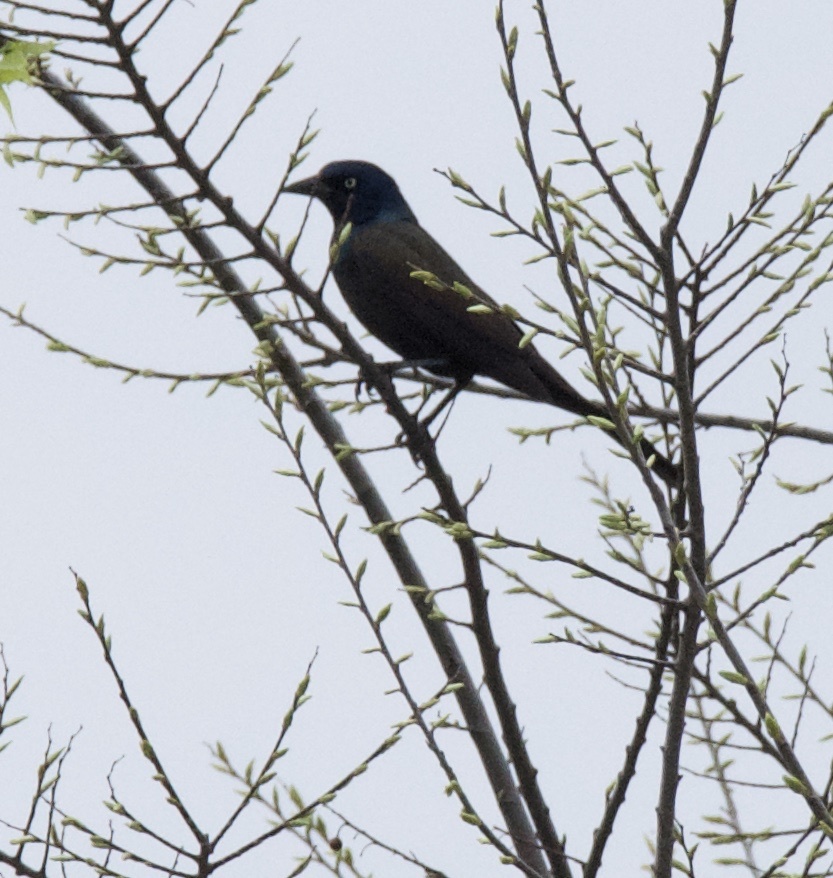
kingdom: Animalia
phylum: Chordata
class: Aves
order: Passeriformes
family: Icteridae
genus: Quiscalus
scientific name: Quiscalus quiscula
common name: Common grackle
